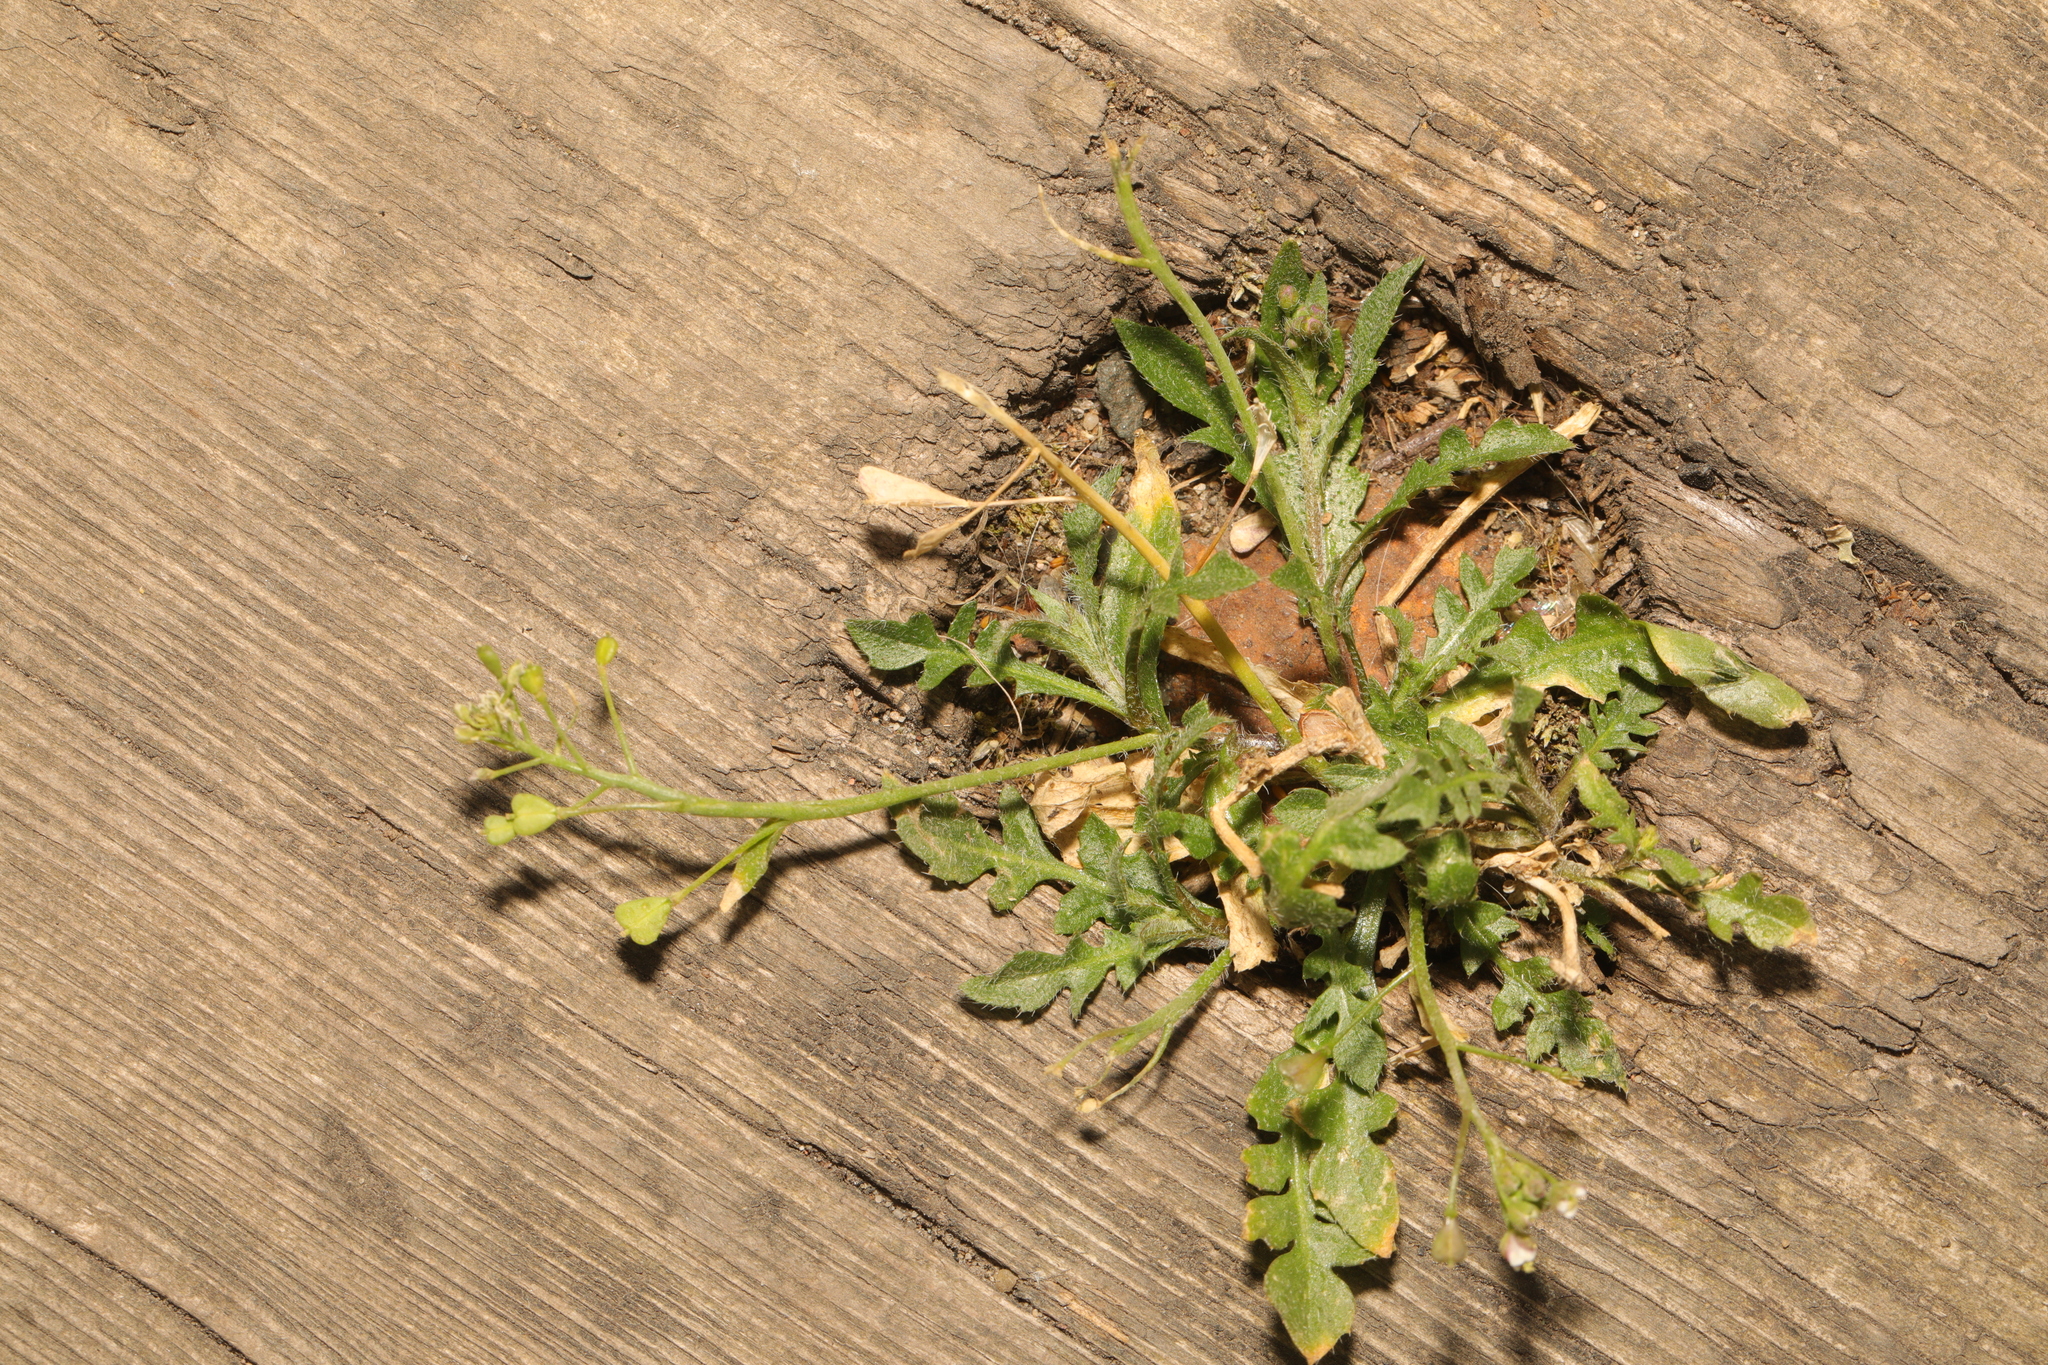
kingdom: Plantae
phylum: Tracheophyta
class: Magnoliopsida
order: Brassicales
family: Brassicaceae
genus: Capsella
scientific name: Capsella bursa-pastoris
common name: Shepherd's purse
